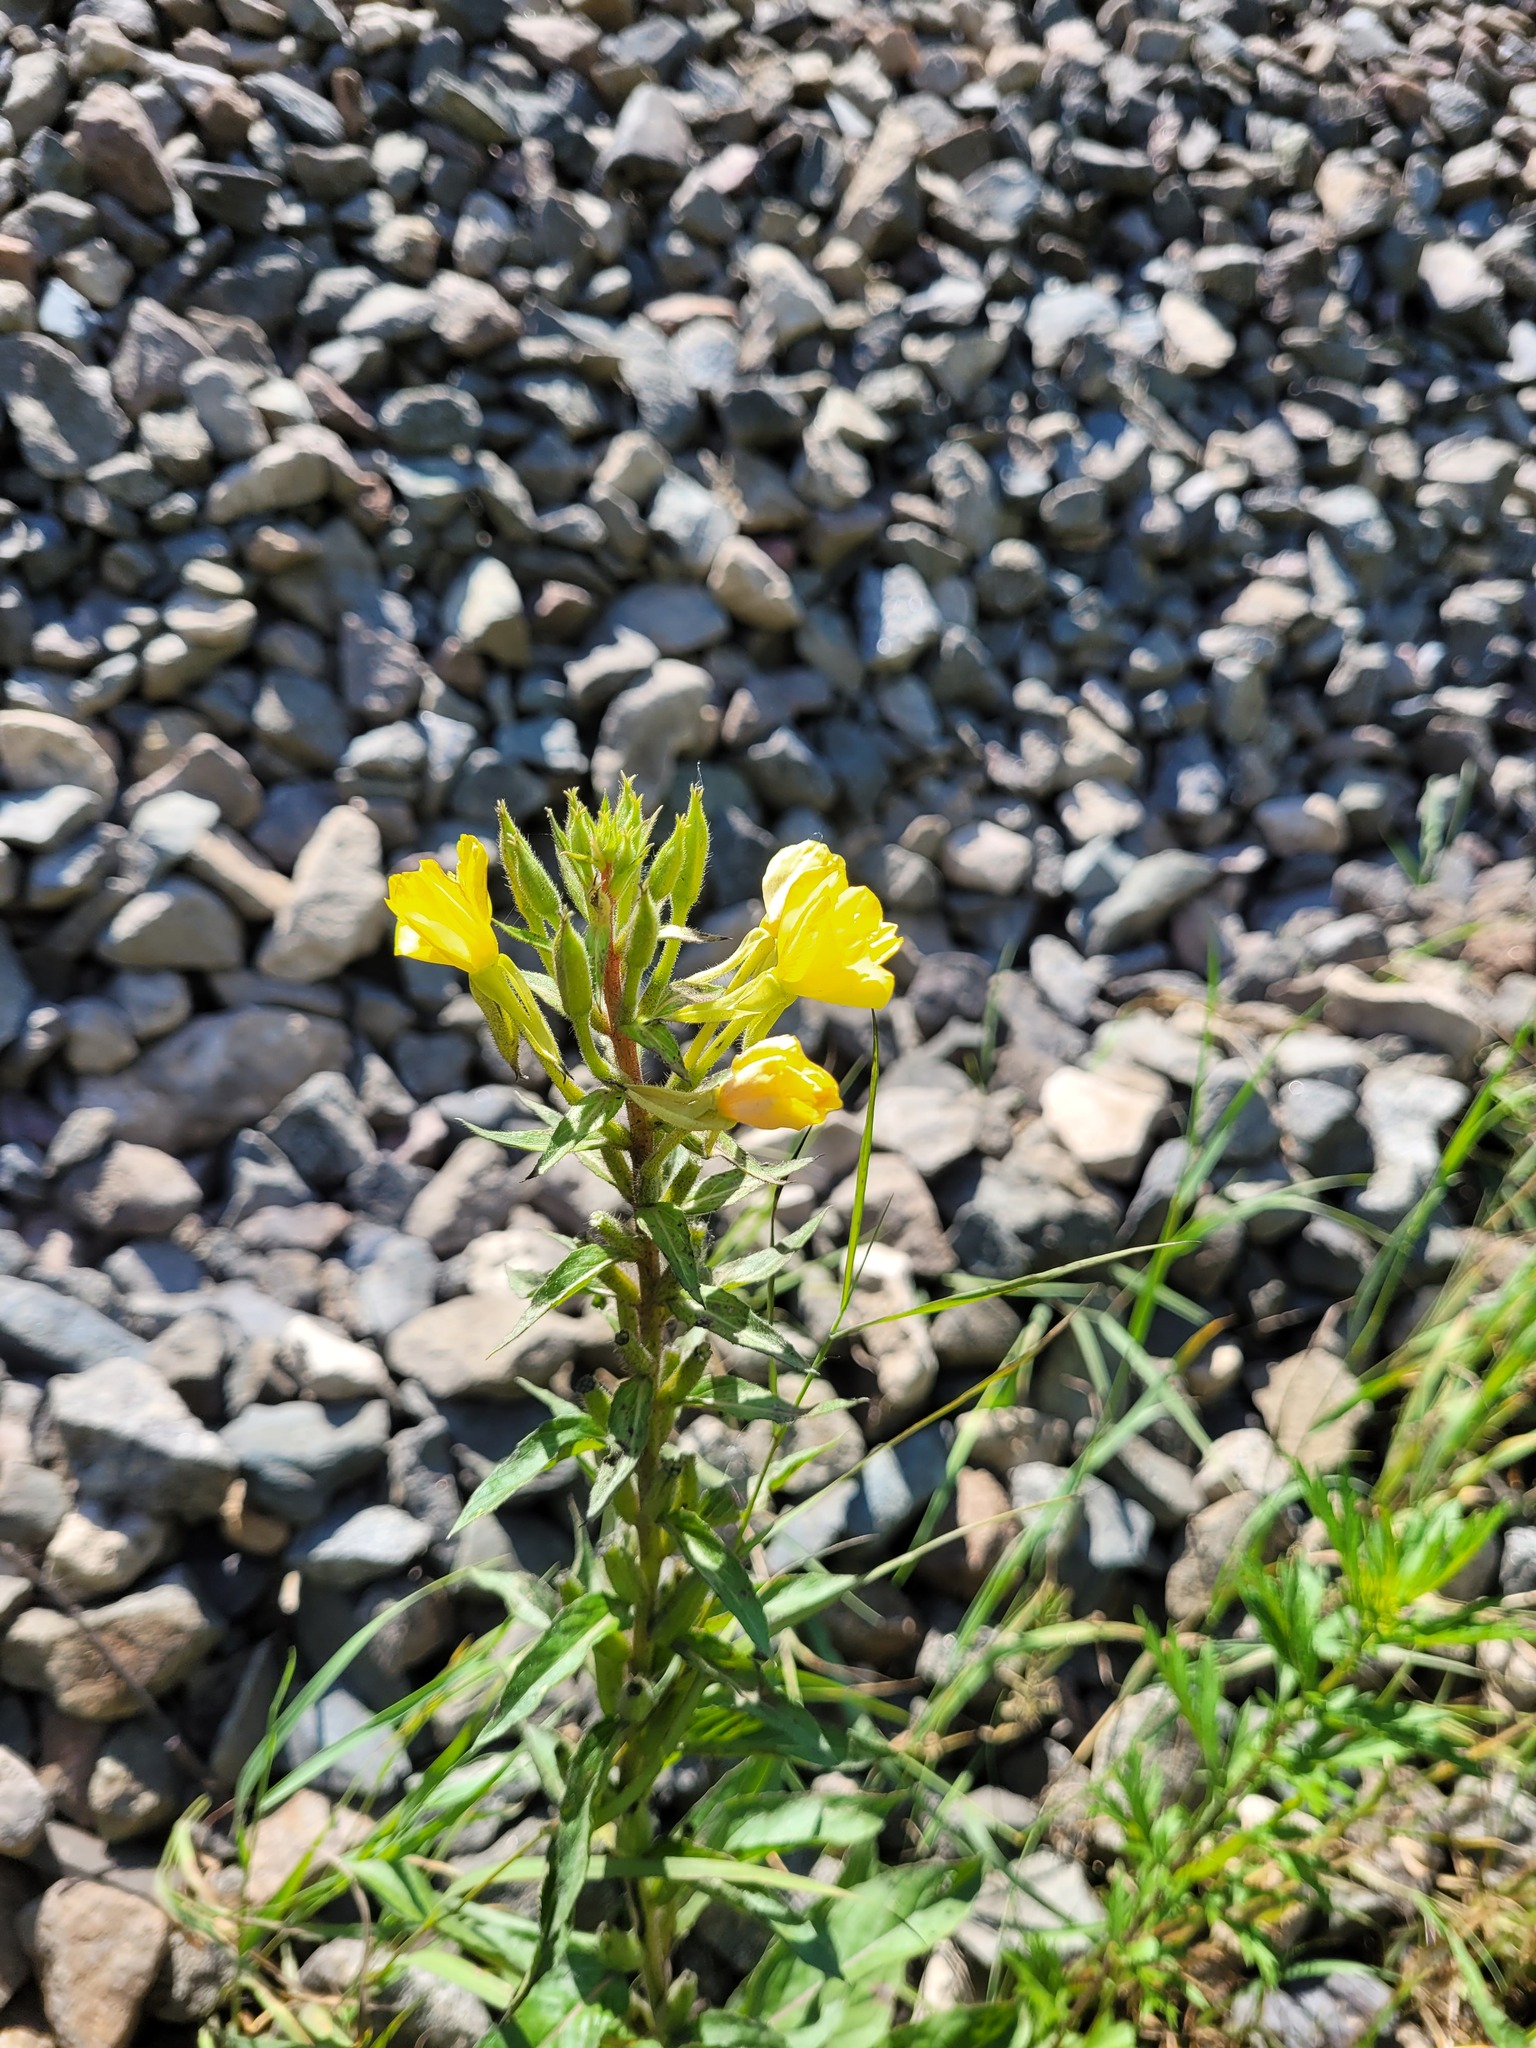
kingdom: Plantae
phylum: Tracheophyta
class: Magnoliopsida
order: Myrtales
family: Onagraceae
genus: Oenothera
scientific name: Oenothera rubricaulis
